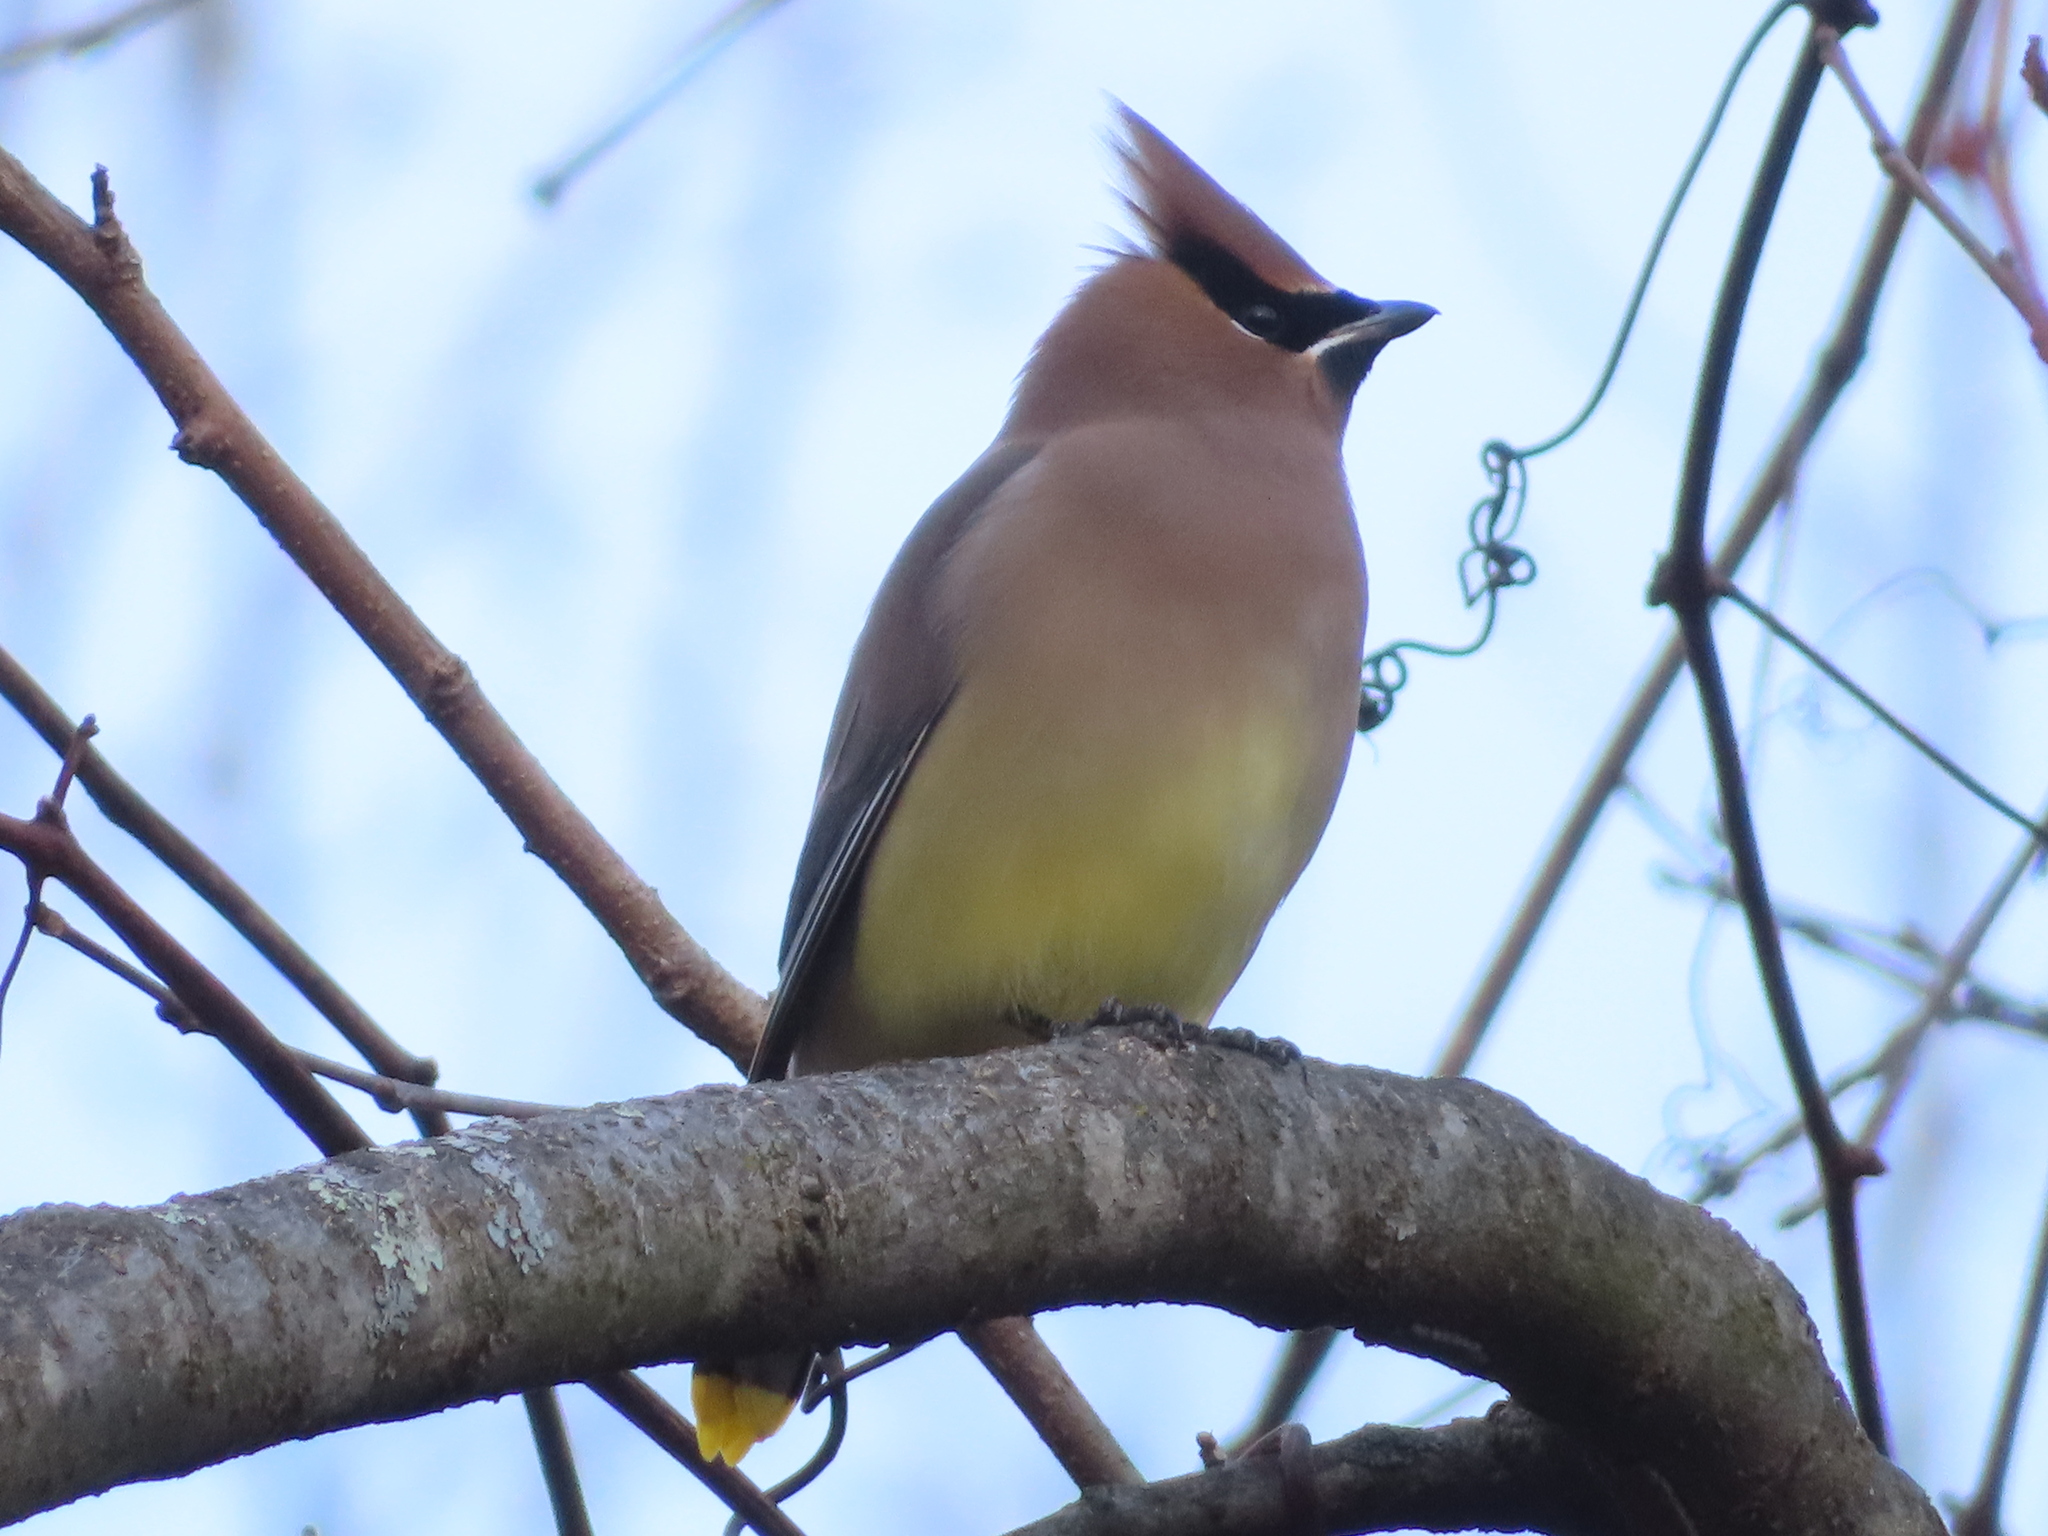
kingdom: Animalia
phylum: Chordata
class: Aves
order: Passeriformes
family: Bombycillidae
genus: Bombycilla
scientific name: Bombycilla cedrorum
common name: Cedar waxwing
